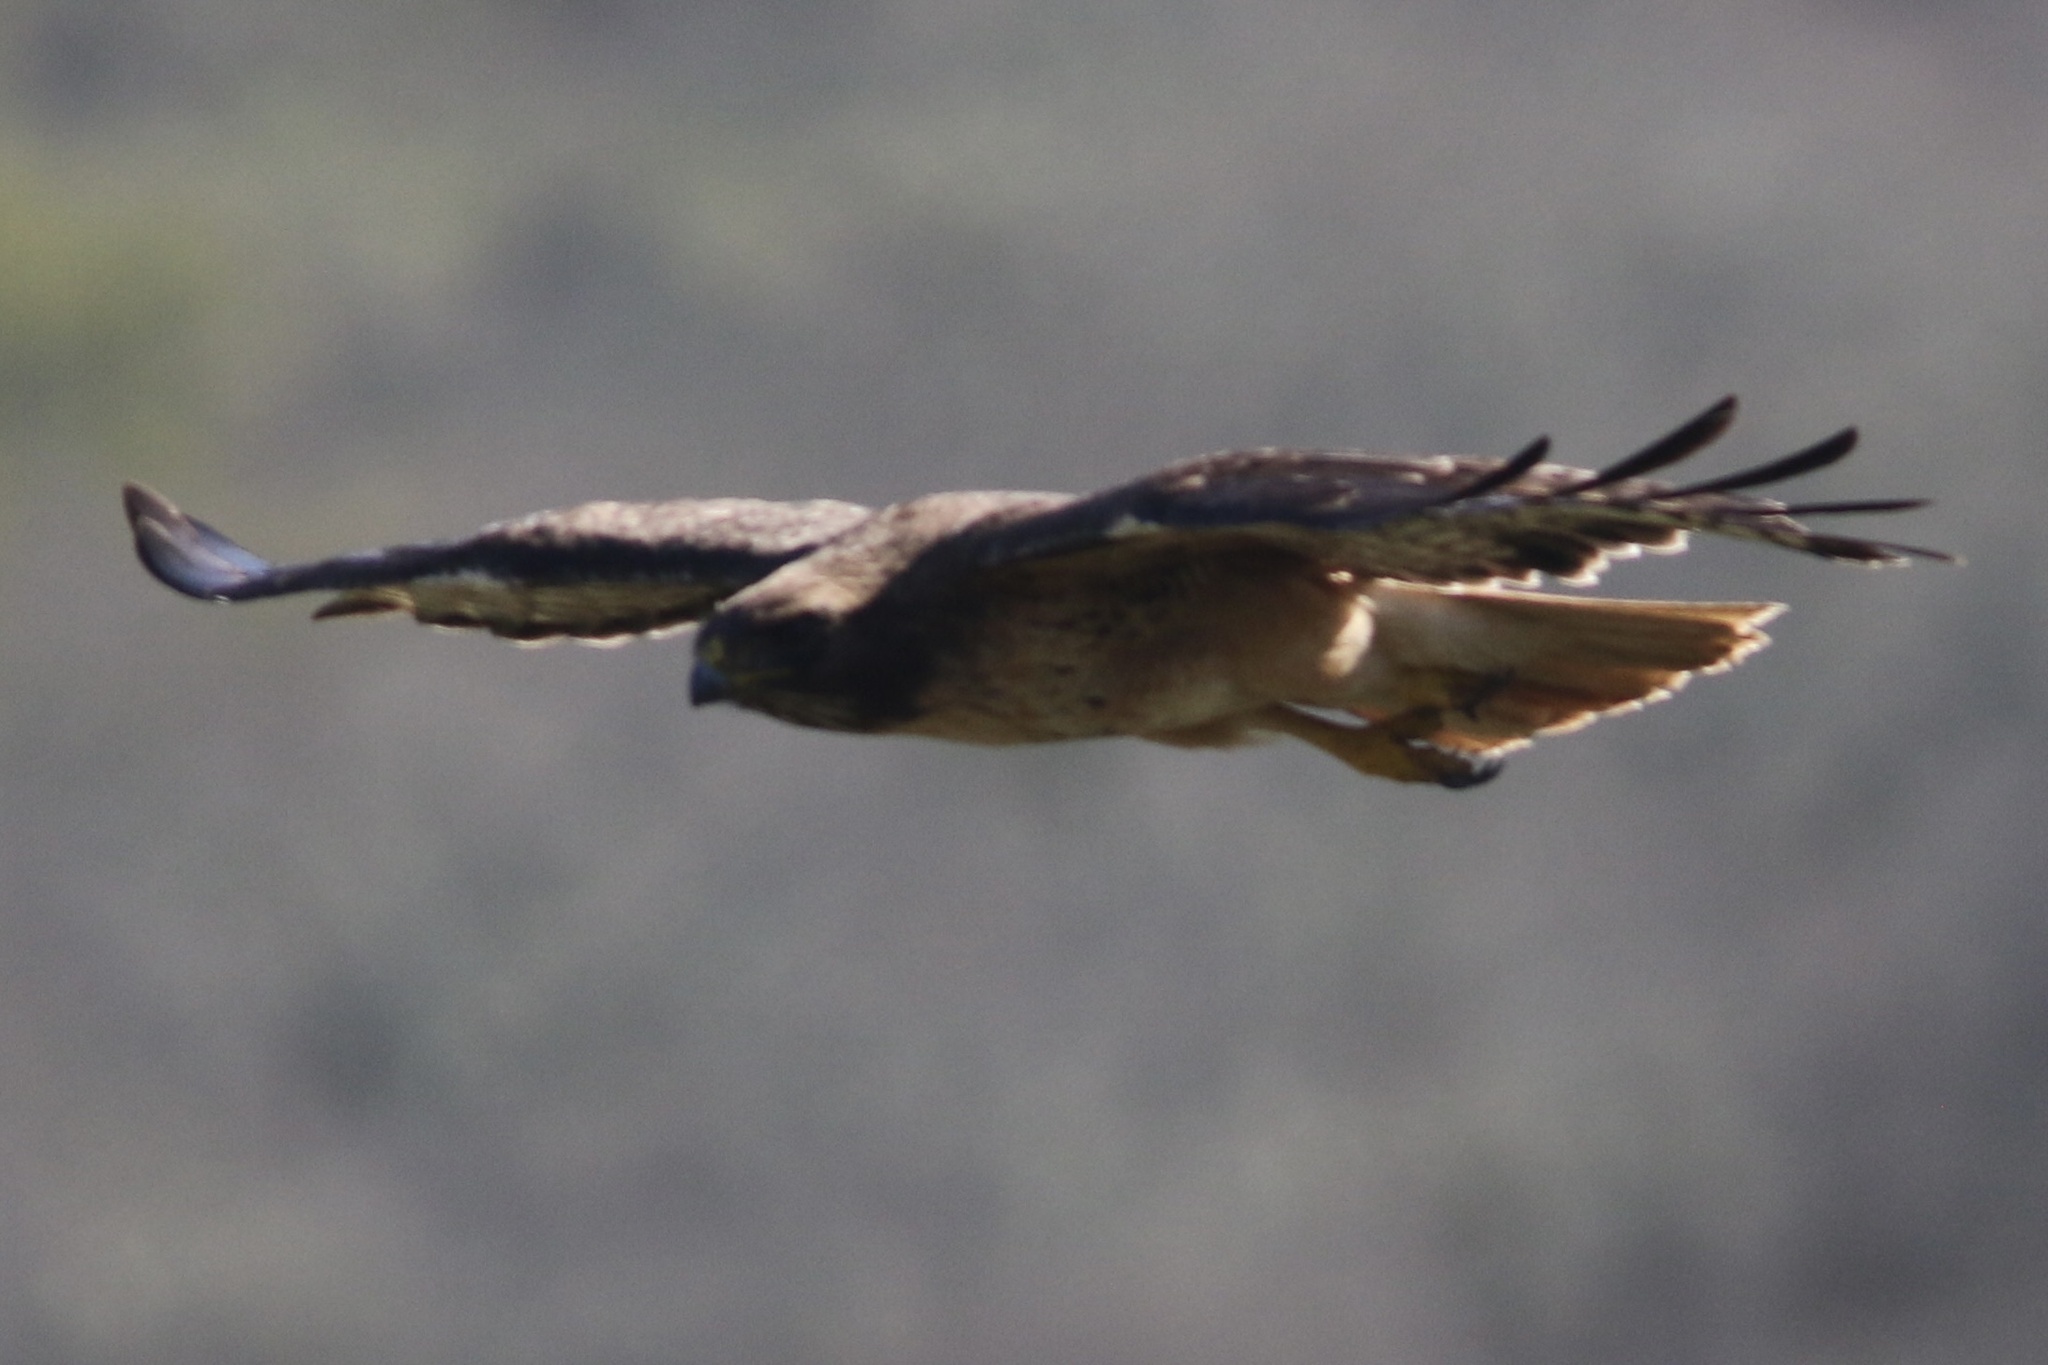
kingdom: Animalia
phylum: Chordata
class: Aves
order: Accipitriformes
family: Accipitridae
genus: Buteo
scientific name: Buteo jamaicensis
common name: Red-tailed hawk
